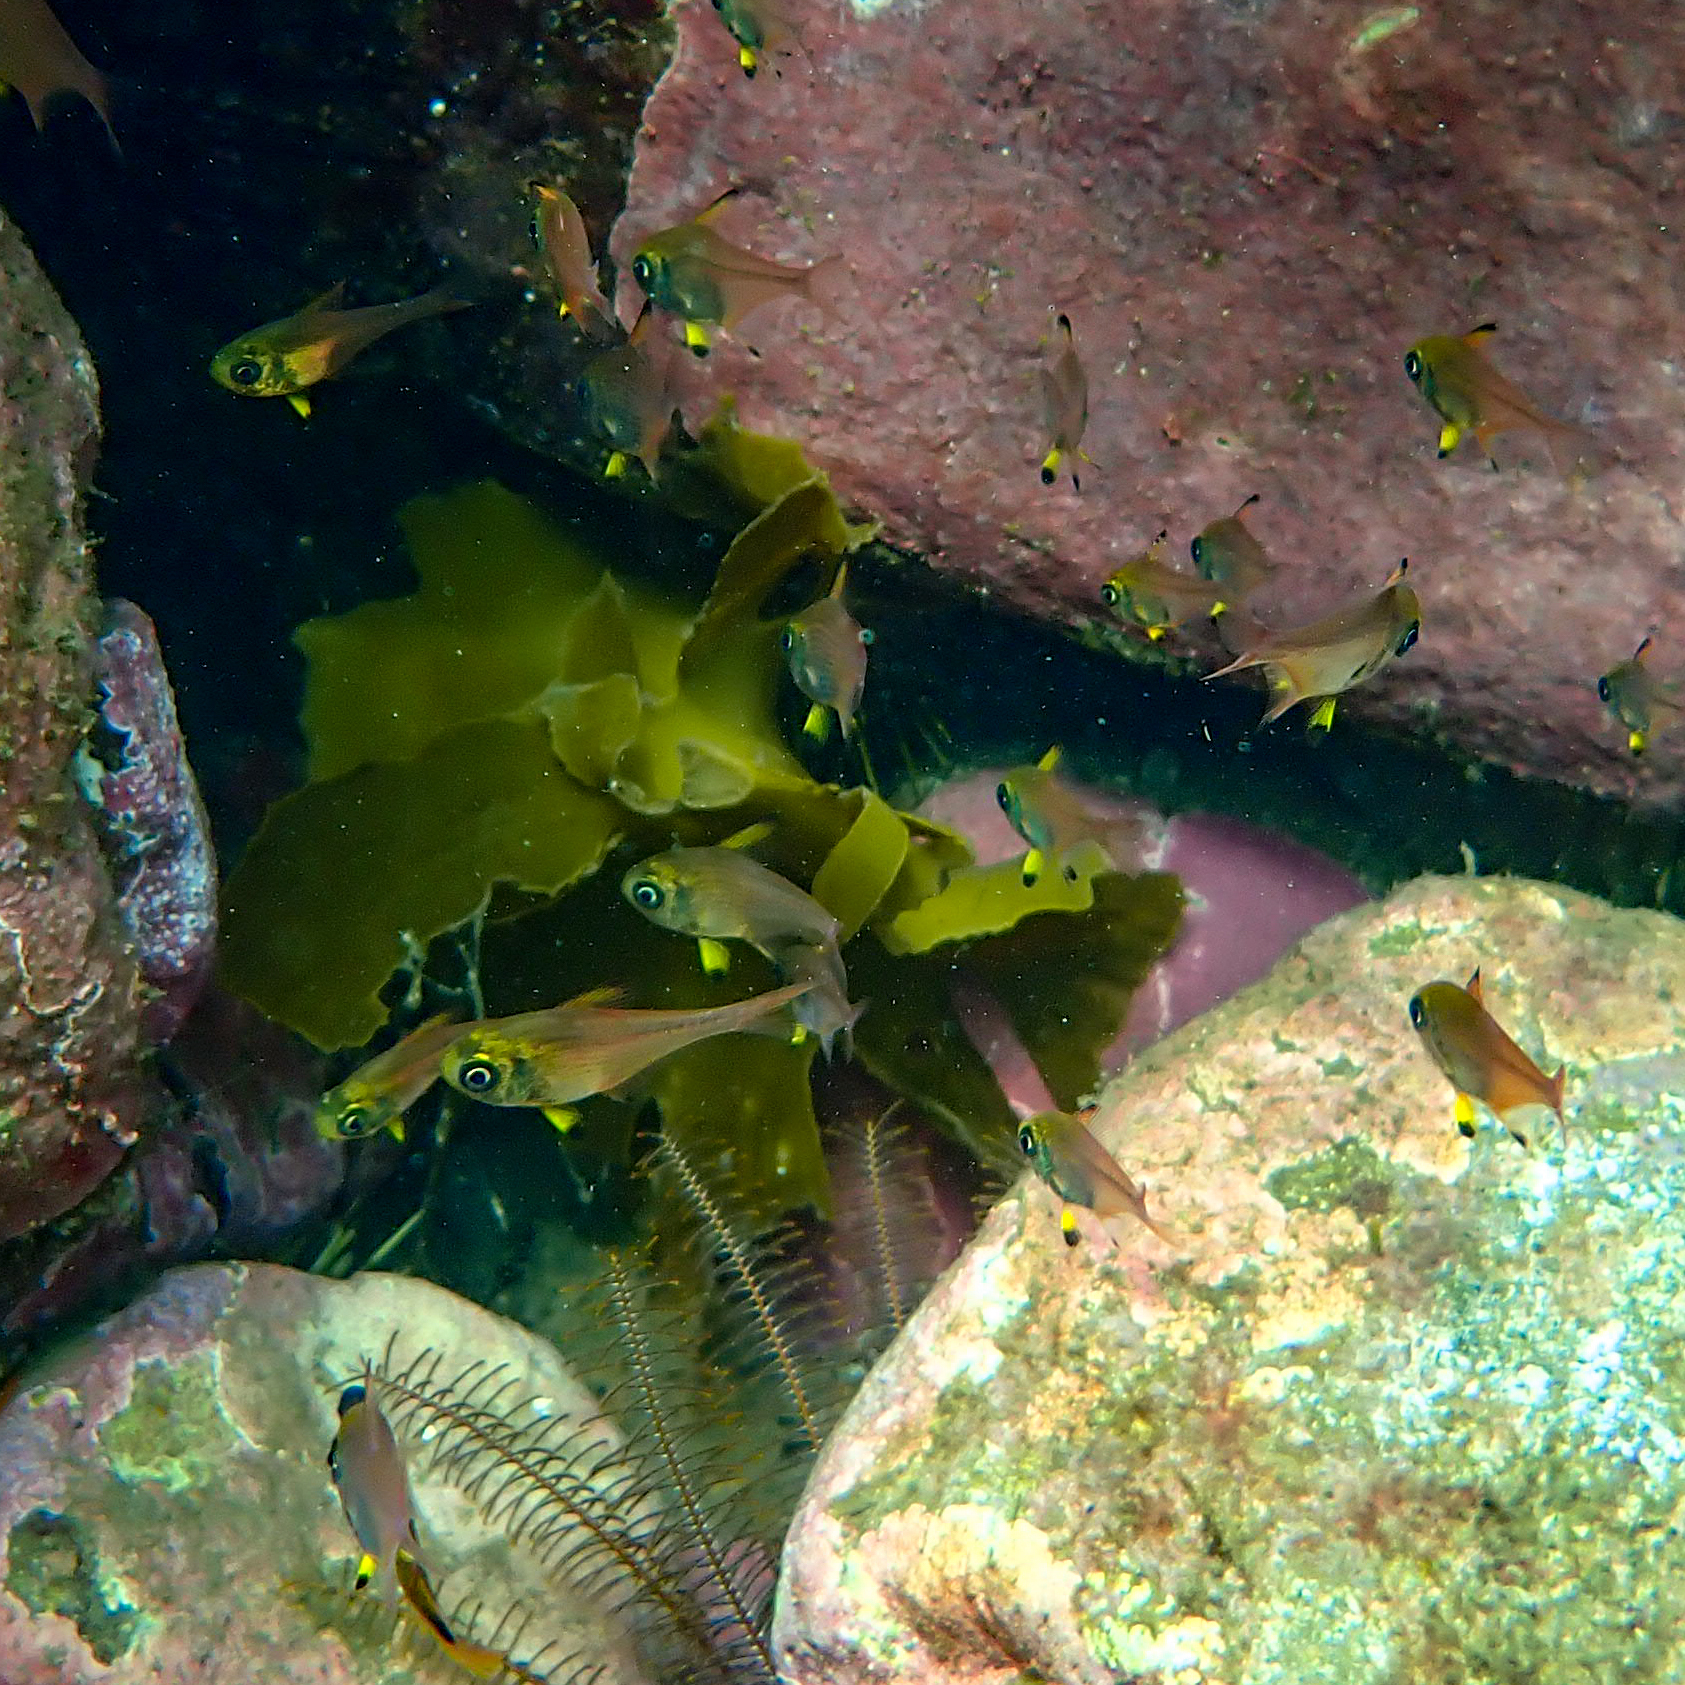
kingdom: Animalia
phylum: Chordata
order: Perciformes
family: Pempheridae
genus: Pempheris
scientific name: Pempheris multiradiata
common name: Big-scaled bullseye
